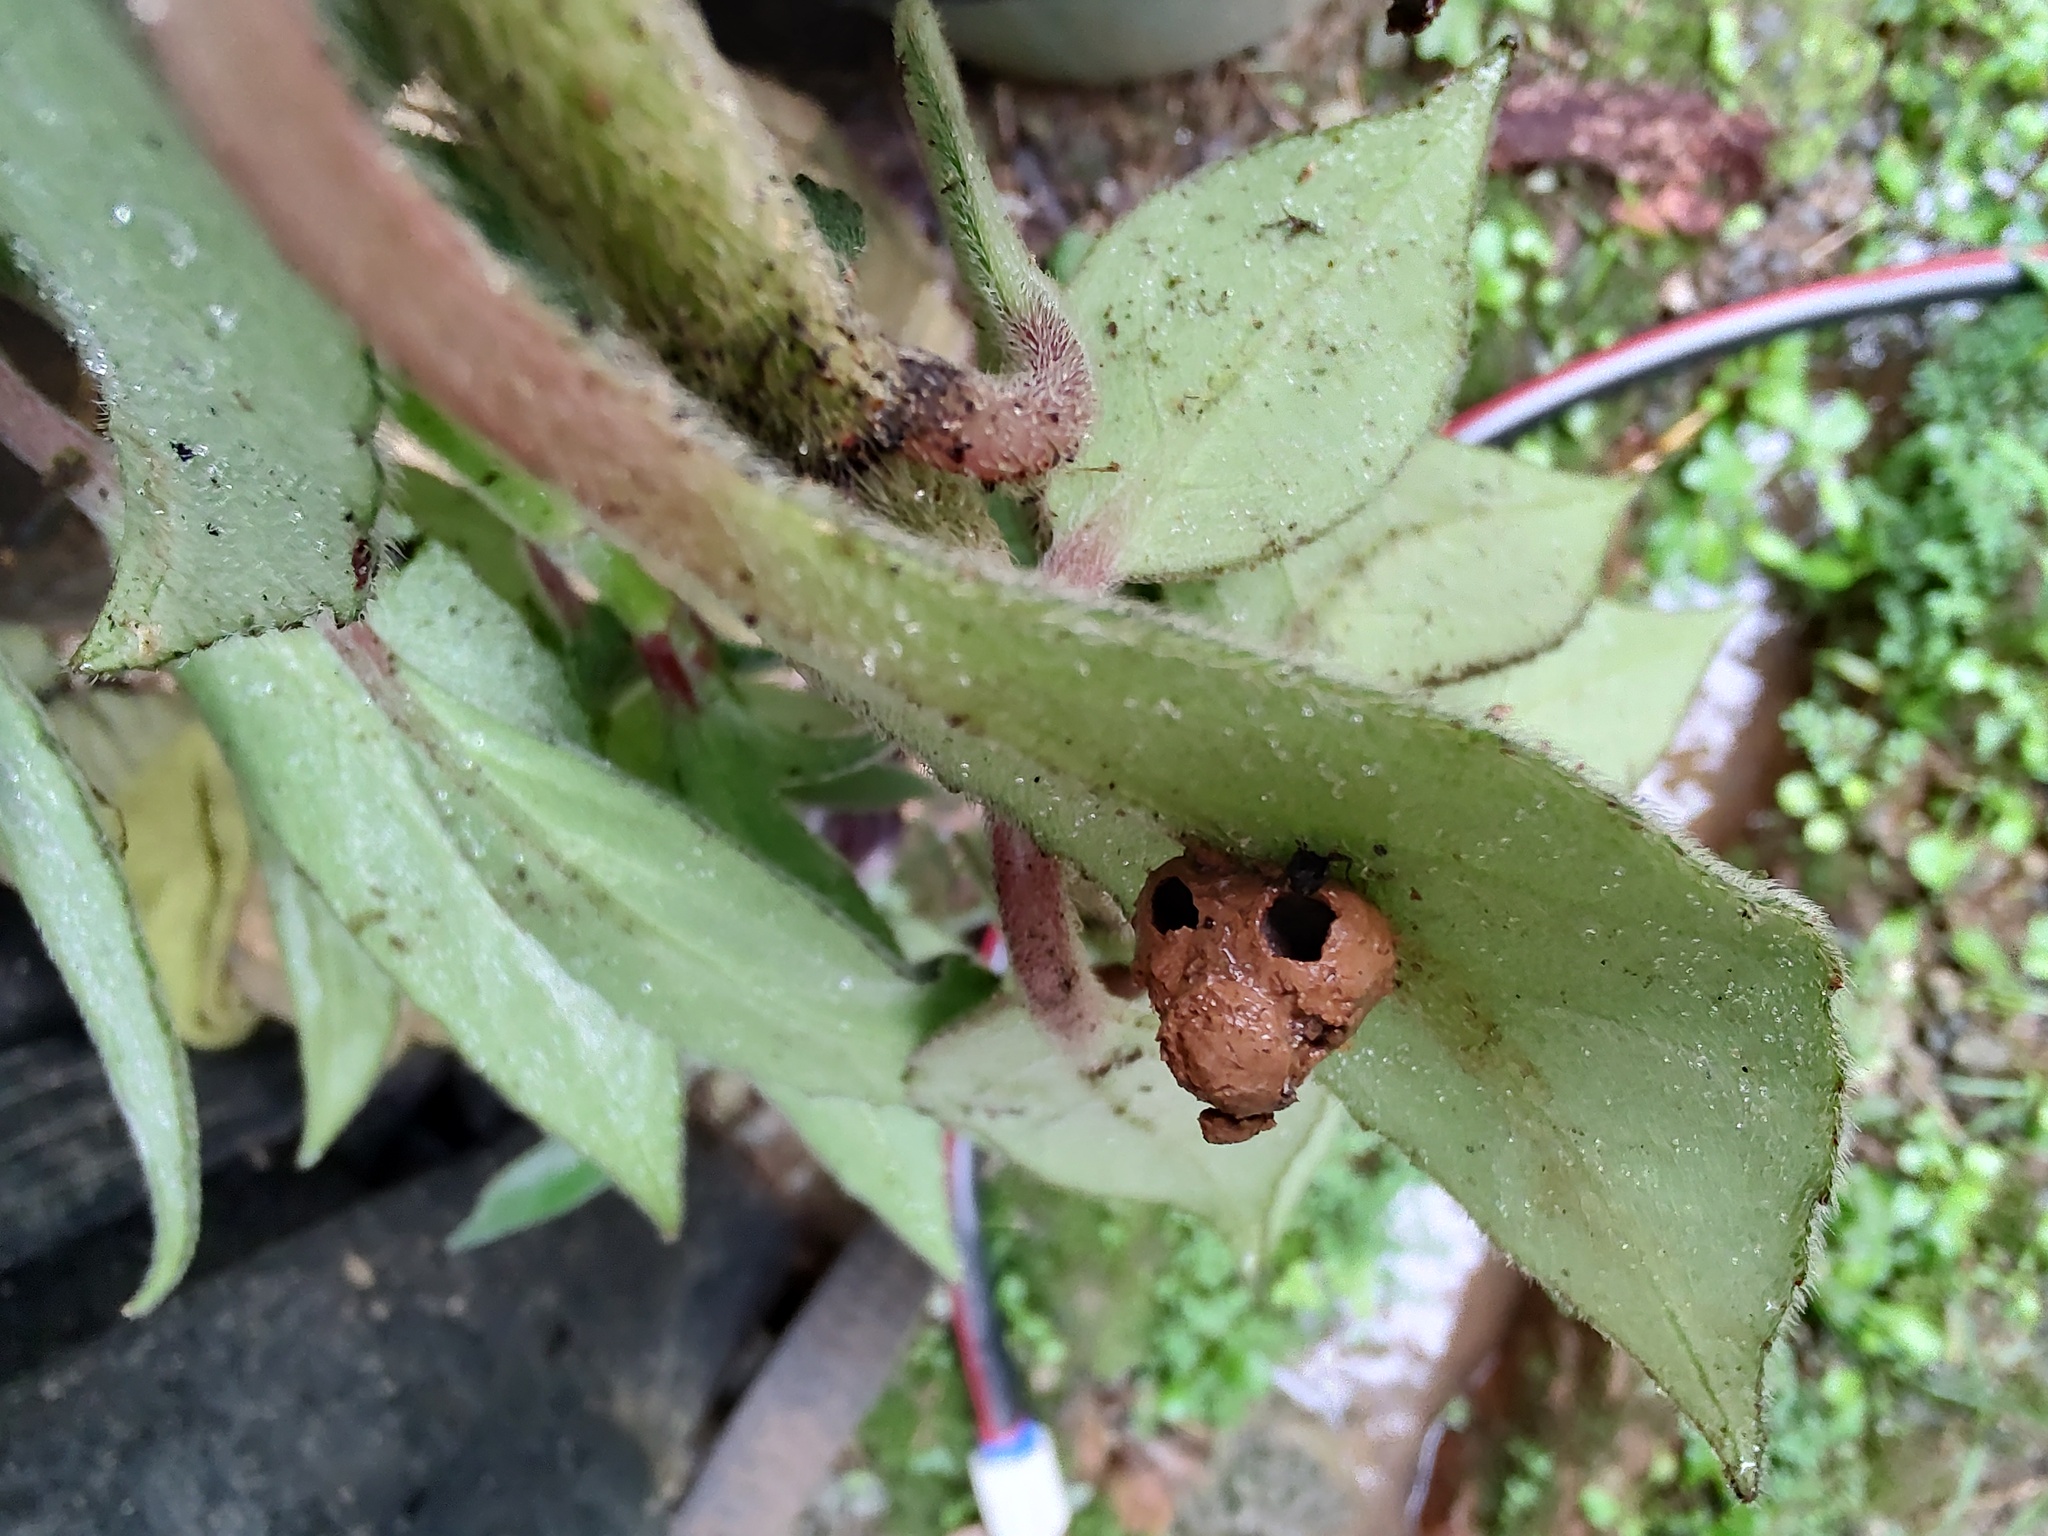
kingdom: Animalia
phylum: Arthropoda
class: Insecta
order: Hymenoptera
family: Eumenidae
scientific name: Eumenidae
